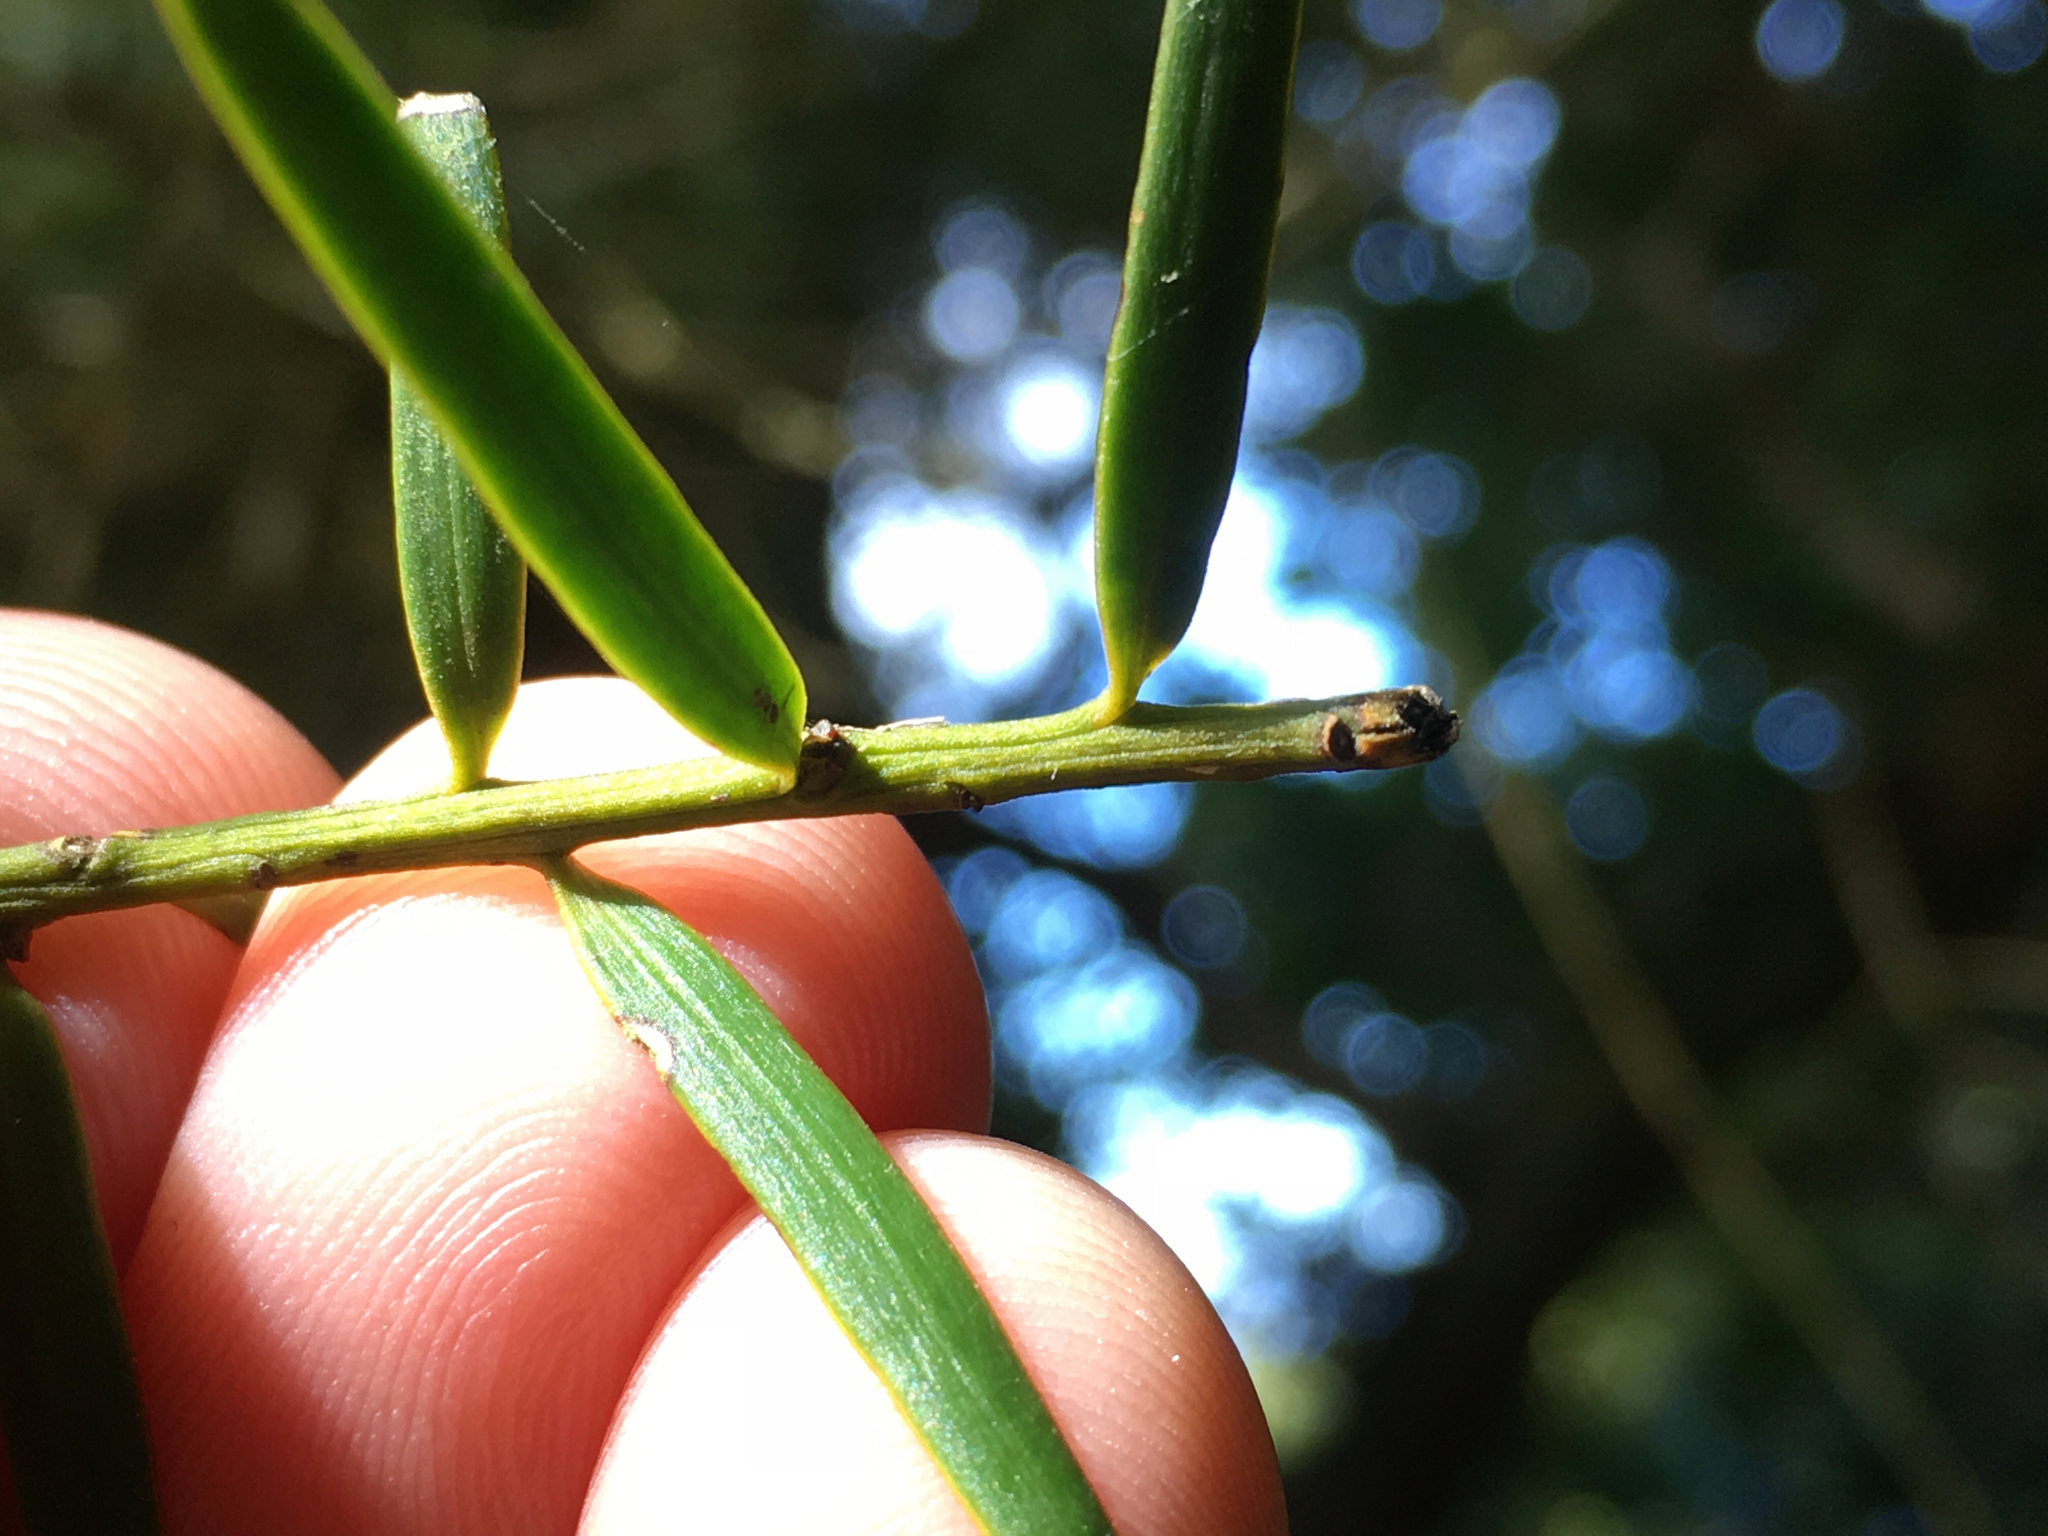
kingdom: Plantae
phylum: Tracheophyta
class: Pinopsida
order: Pinales
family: Podocarpaceae
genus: Podocarpus
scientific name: Podocarpus totara
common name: Totara
